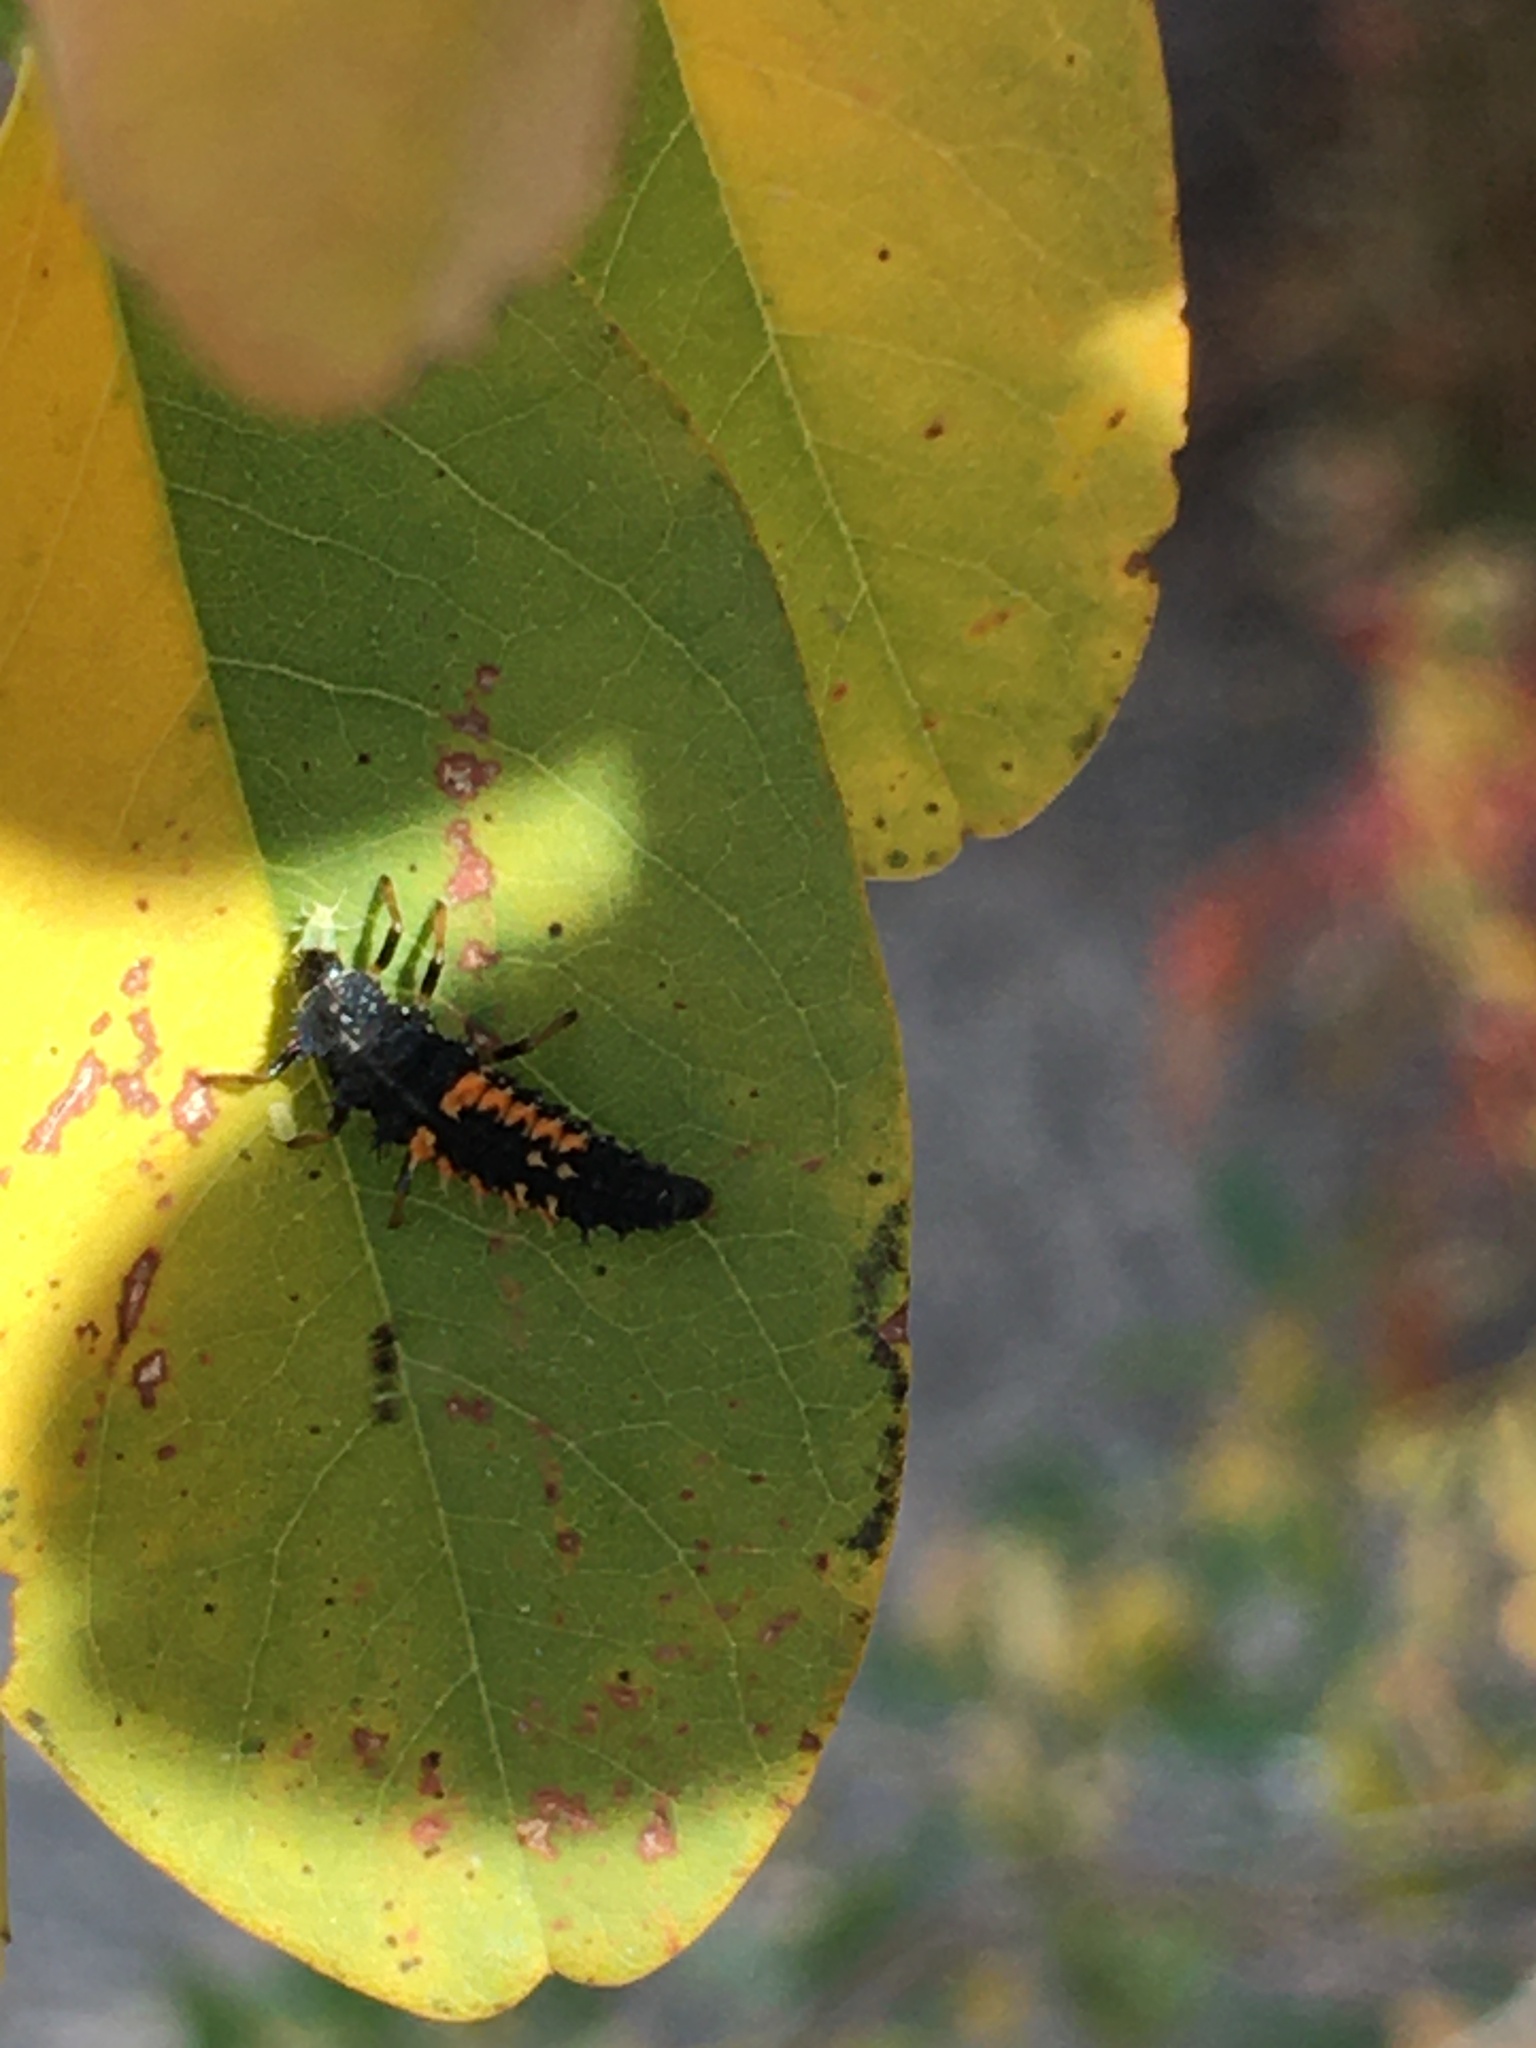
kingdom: Animalia
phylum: Arthropoda
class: Insecta
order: Coleoptera
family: Coccinellidae
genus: Harmonia
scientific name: Harmonia axyridis
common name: Harlequin ladybird
